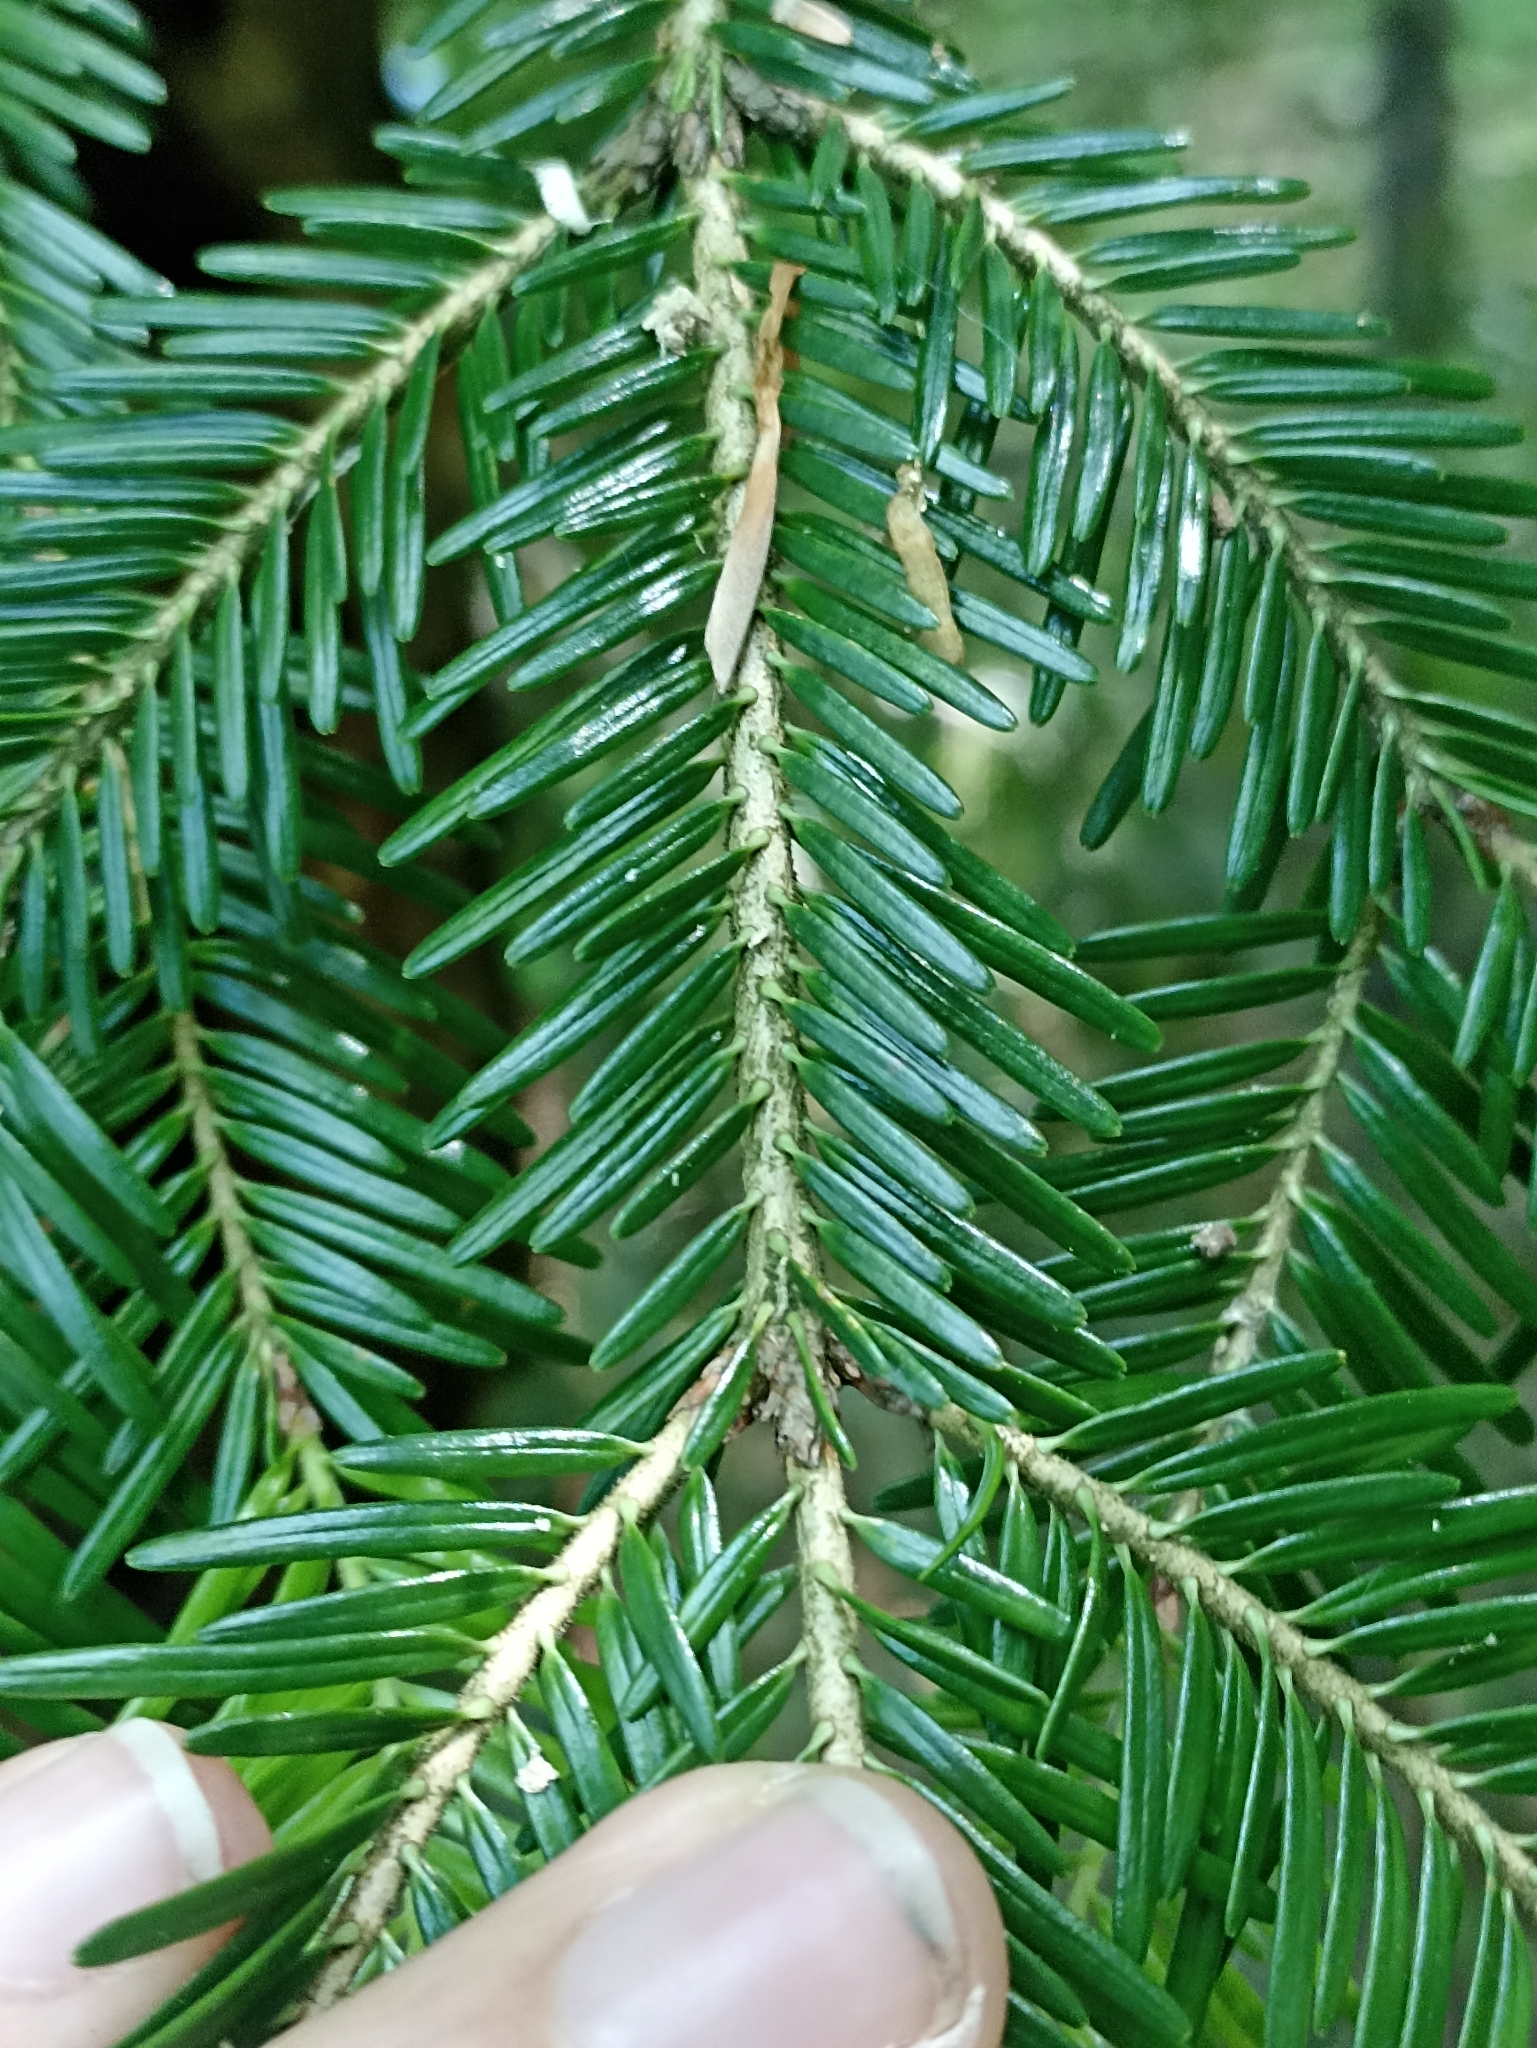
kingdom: Plantae
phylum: Tracheophyta
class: Pinopsida
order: Pinales
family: Pinaceae
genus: Abies
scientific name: Abies alba
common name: Silver fir
